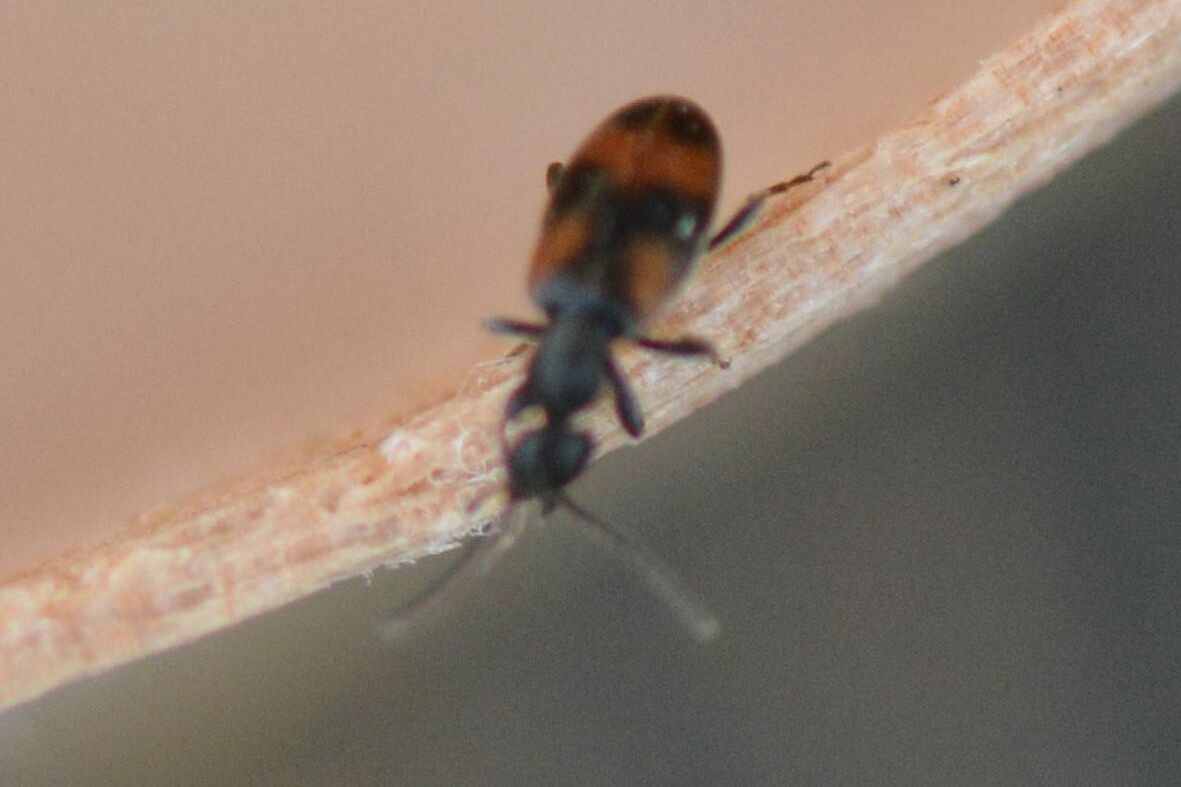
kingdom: Animalia
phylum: Arthropoda
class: Insecta
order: Coleoptera
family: Anthicidae
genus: Anthicus
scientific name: Anthicus antherinus
